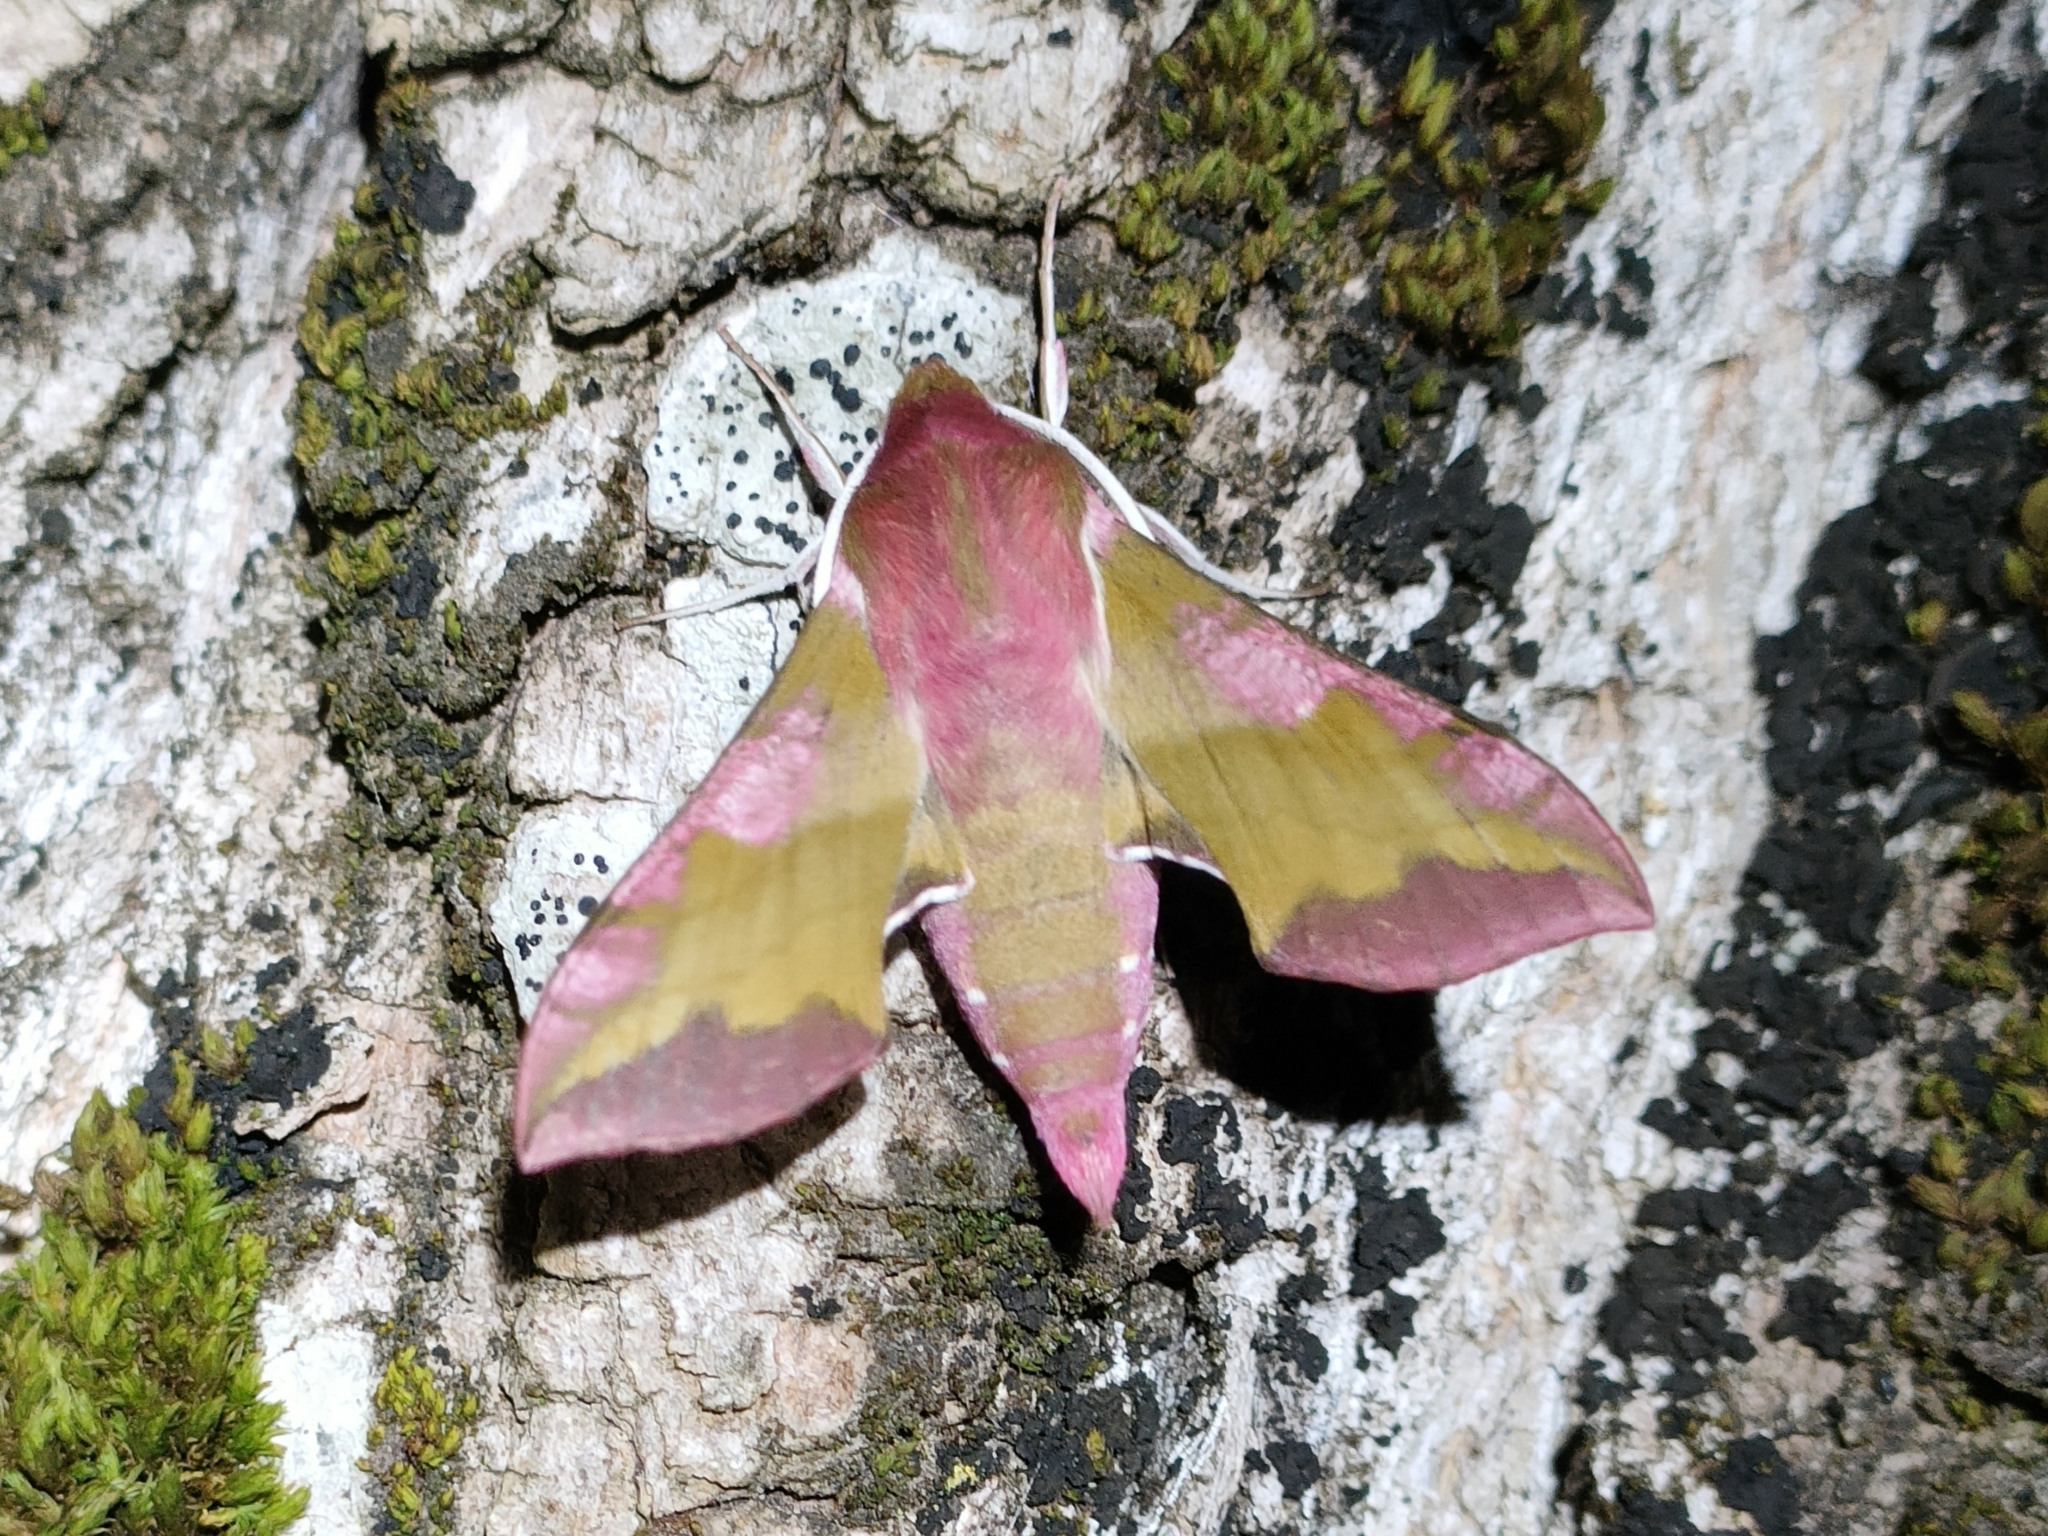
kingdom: Animalia
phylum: Arthropoda
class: Insecta
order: Lepidoptera
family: Sphingidae
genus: Deilephila
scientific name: Deilephila porcellus
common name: Small elephant hawk-moth
